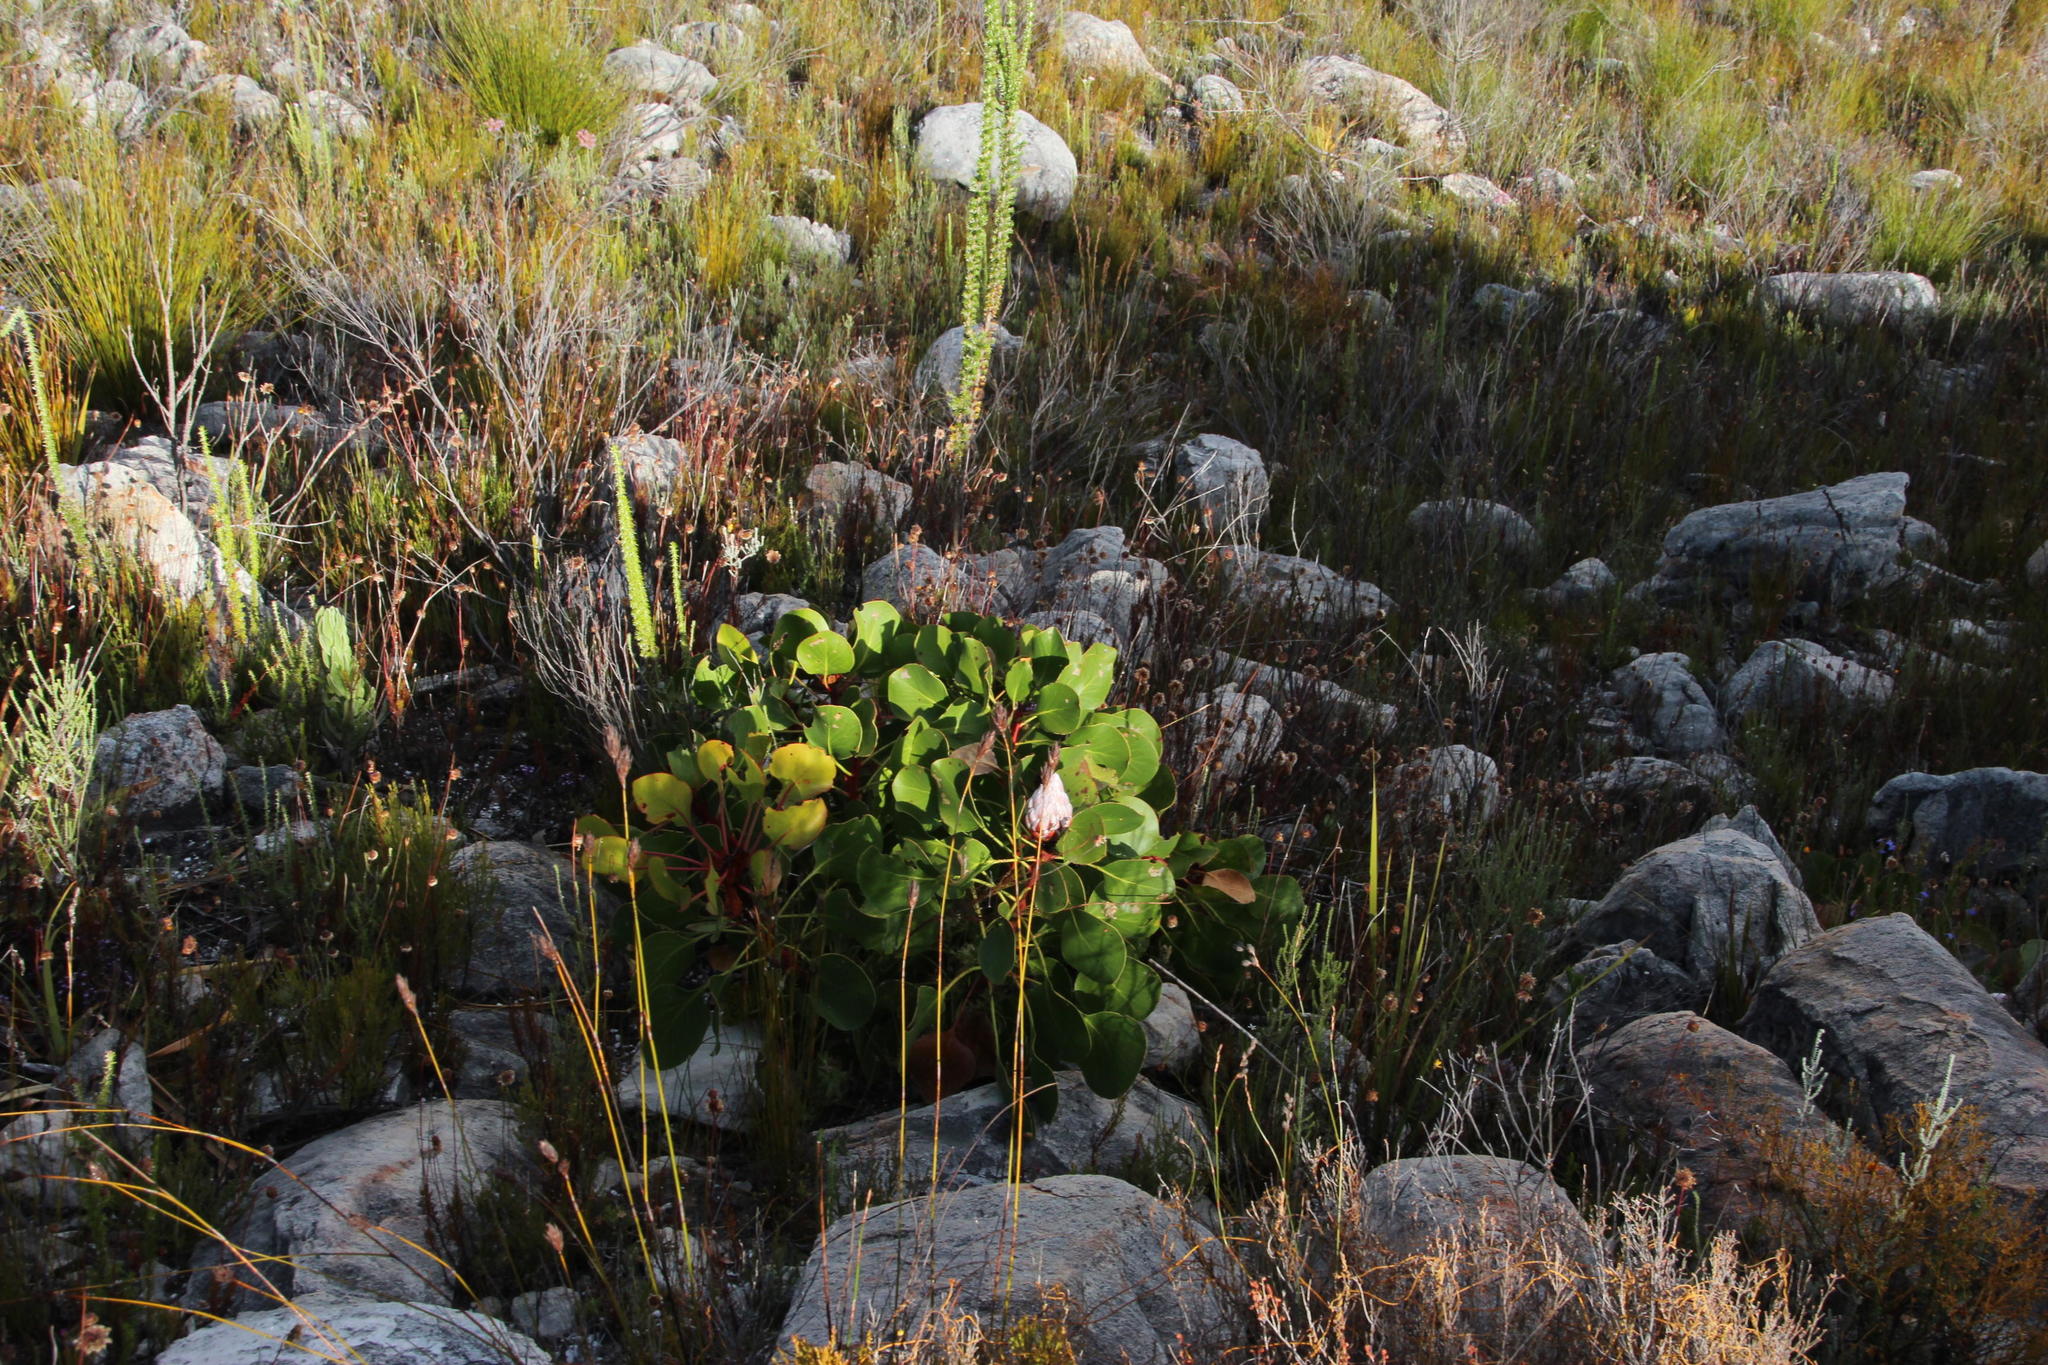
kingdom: Plantae
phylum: Tracheophyta
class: Magnoliopsida
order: Proteales
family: Proteaceae
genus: Protea
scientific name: Protea cynaroides
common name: King protea
